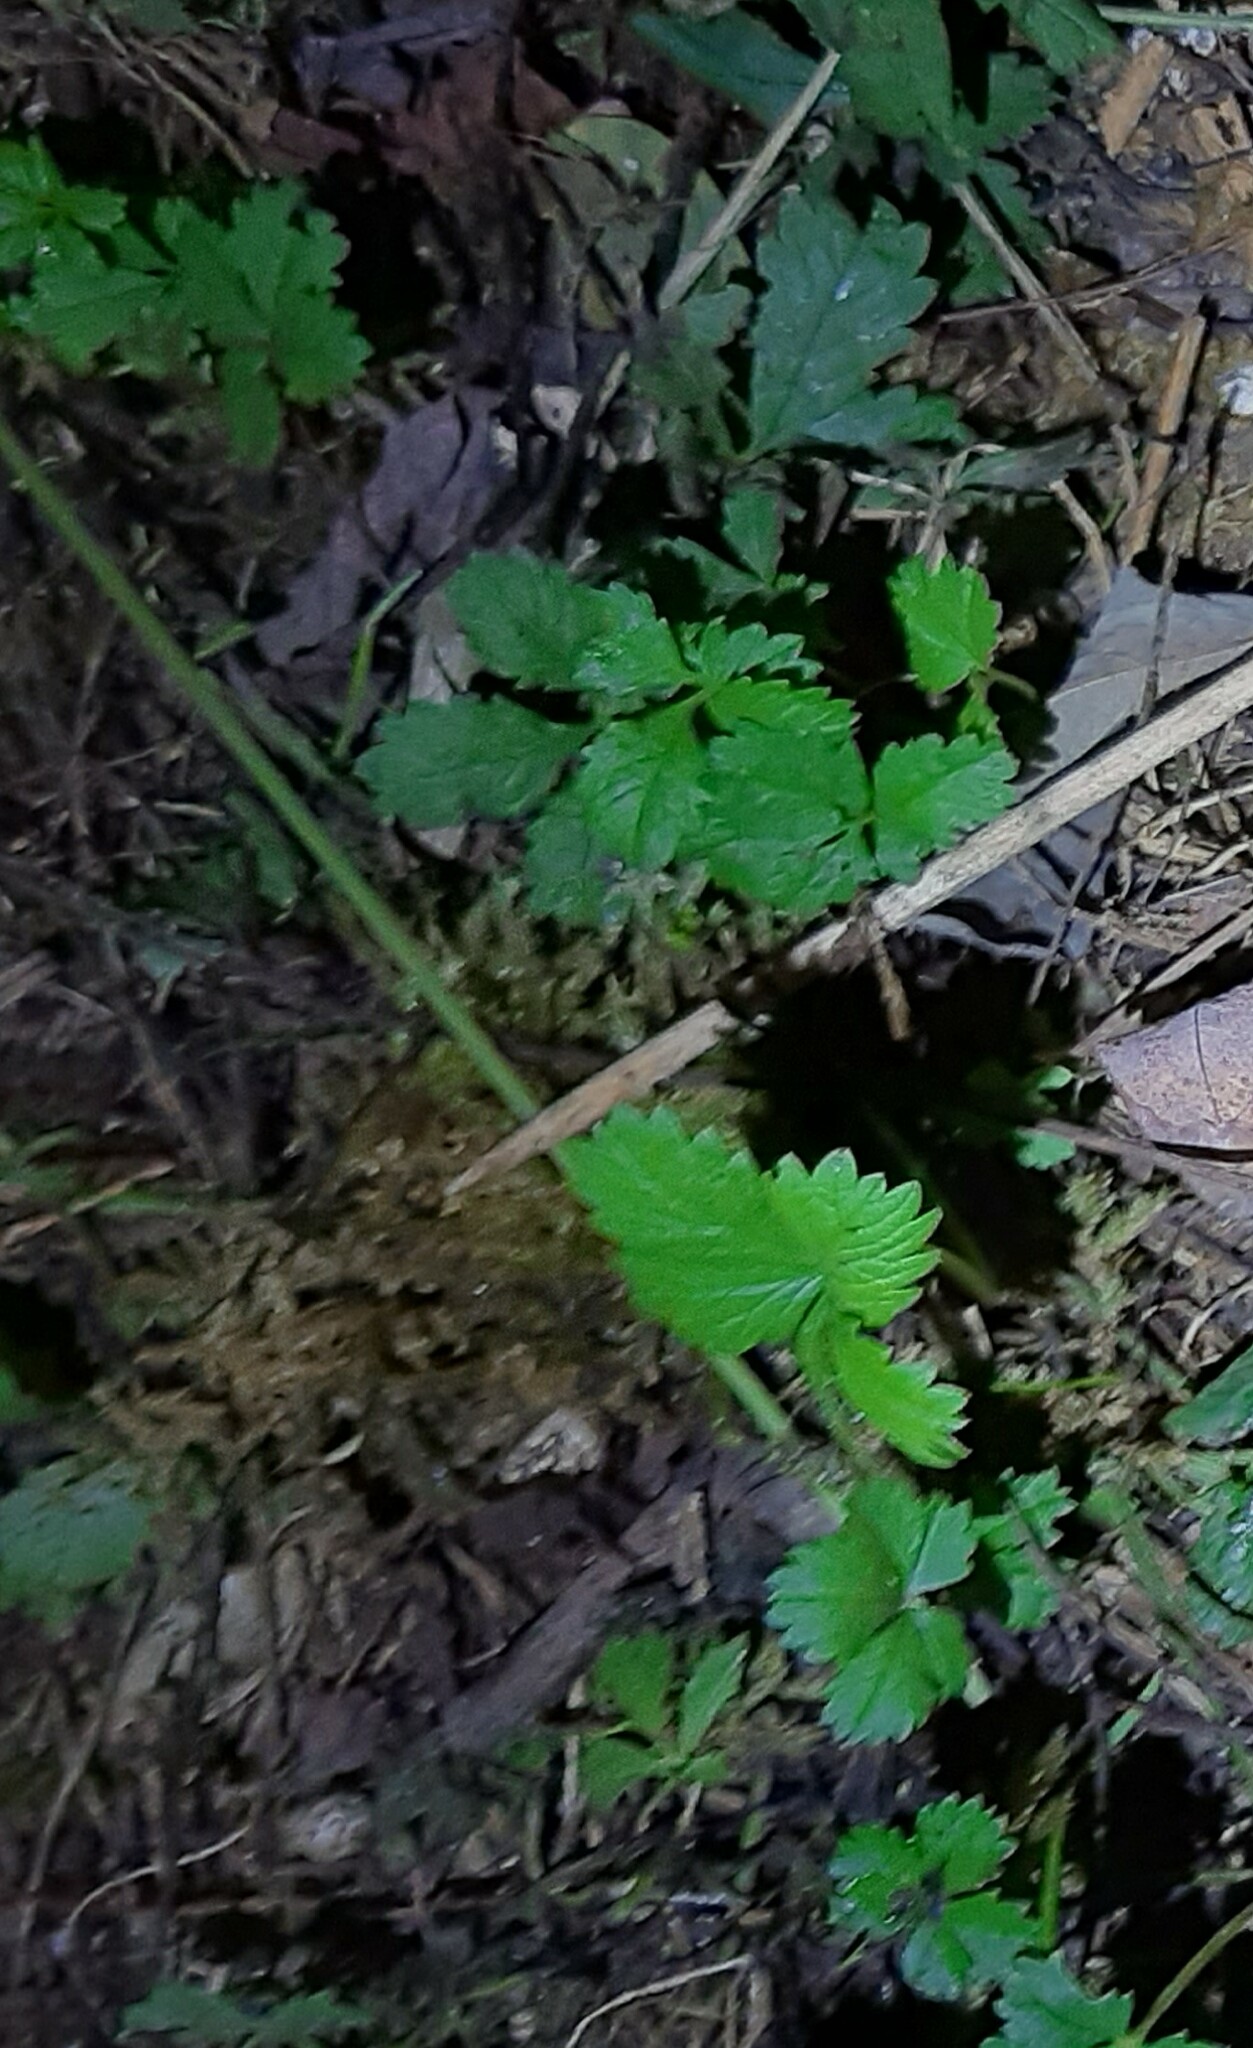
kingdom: Plantae
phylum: Tracheophyta
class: Magnoliopsida
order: Rosales
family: Rosaceae
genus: Potentilla
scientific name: Potentilla reptans
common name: Creeping cinquefoil
